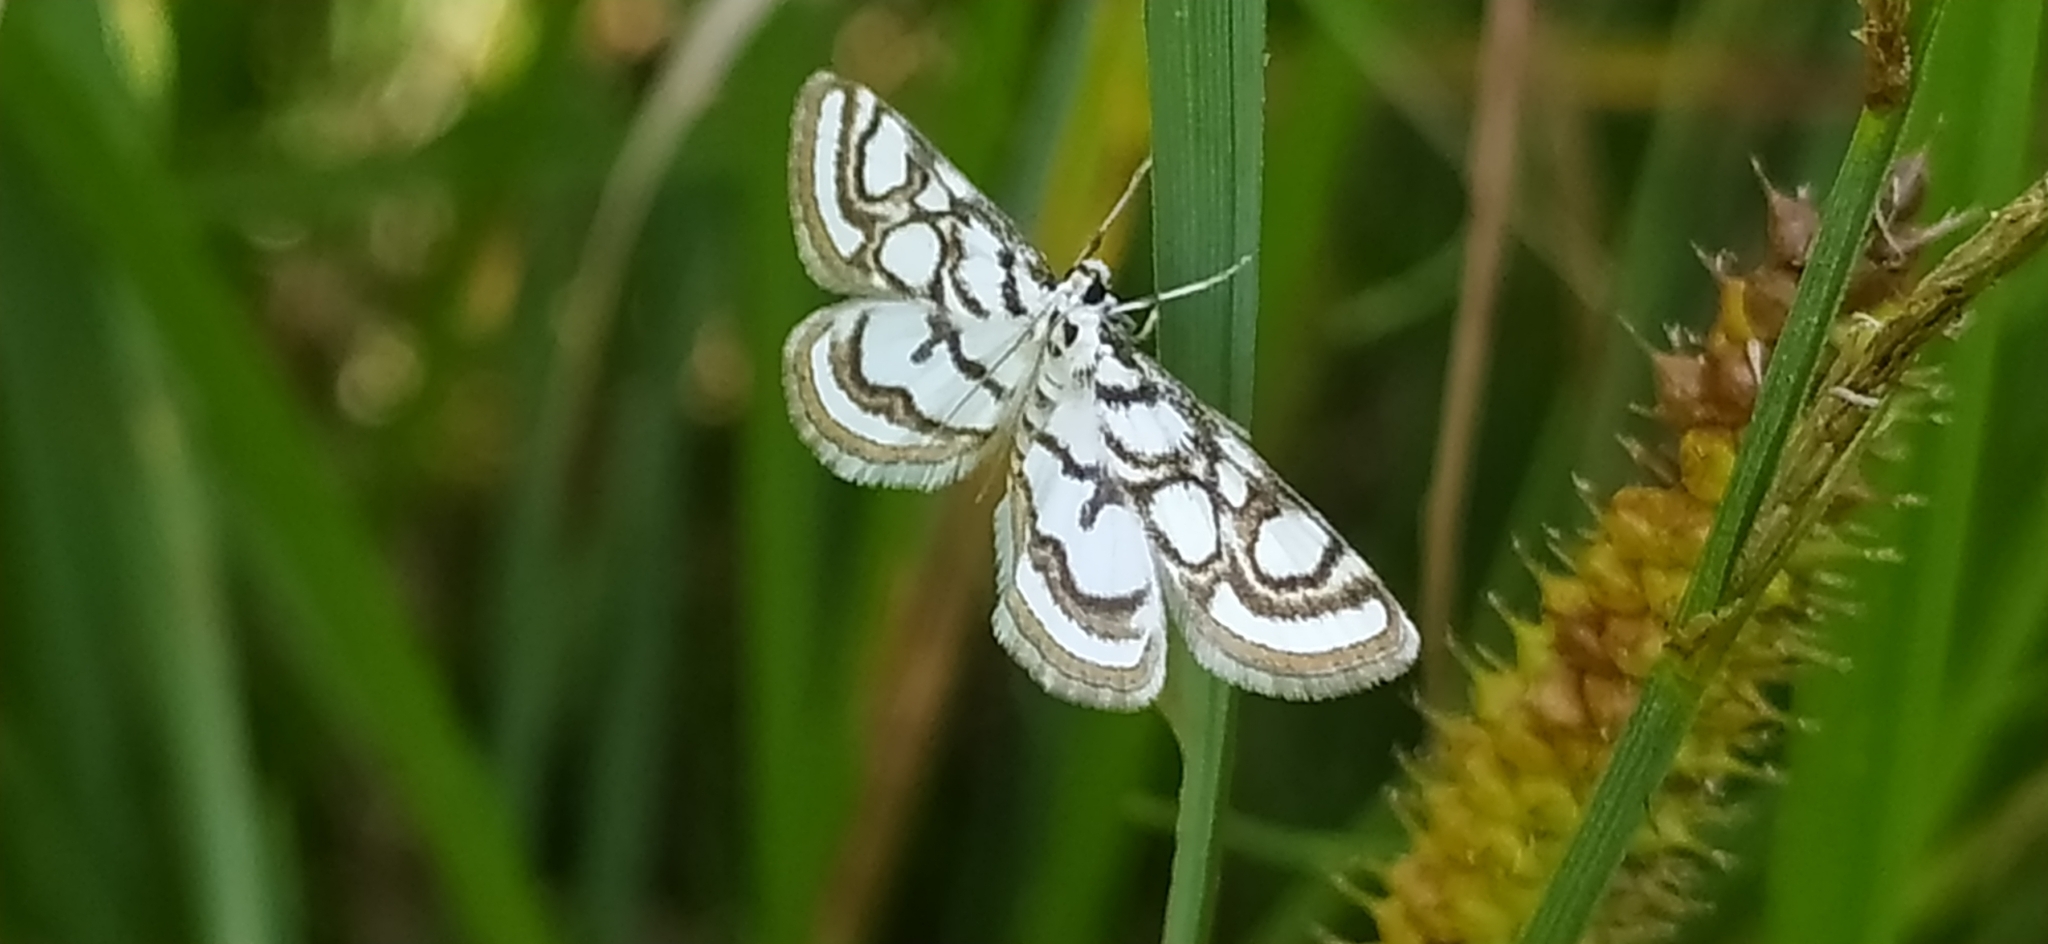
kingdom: Animalia
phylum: Arthropoda
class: Insecta
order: Lepidoptera
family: Crambidae
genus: Nymphula
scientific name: Nymphula nitidulata
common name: Beautiful china mark
